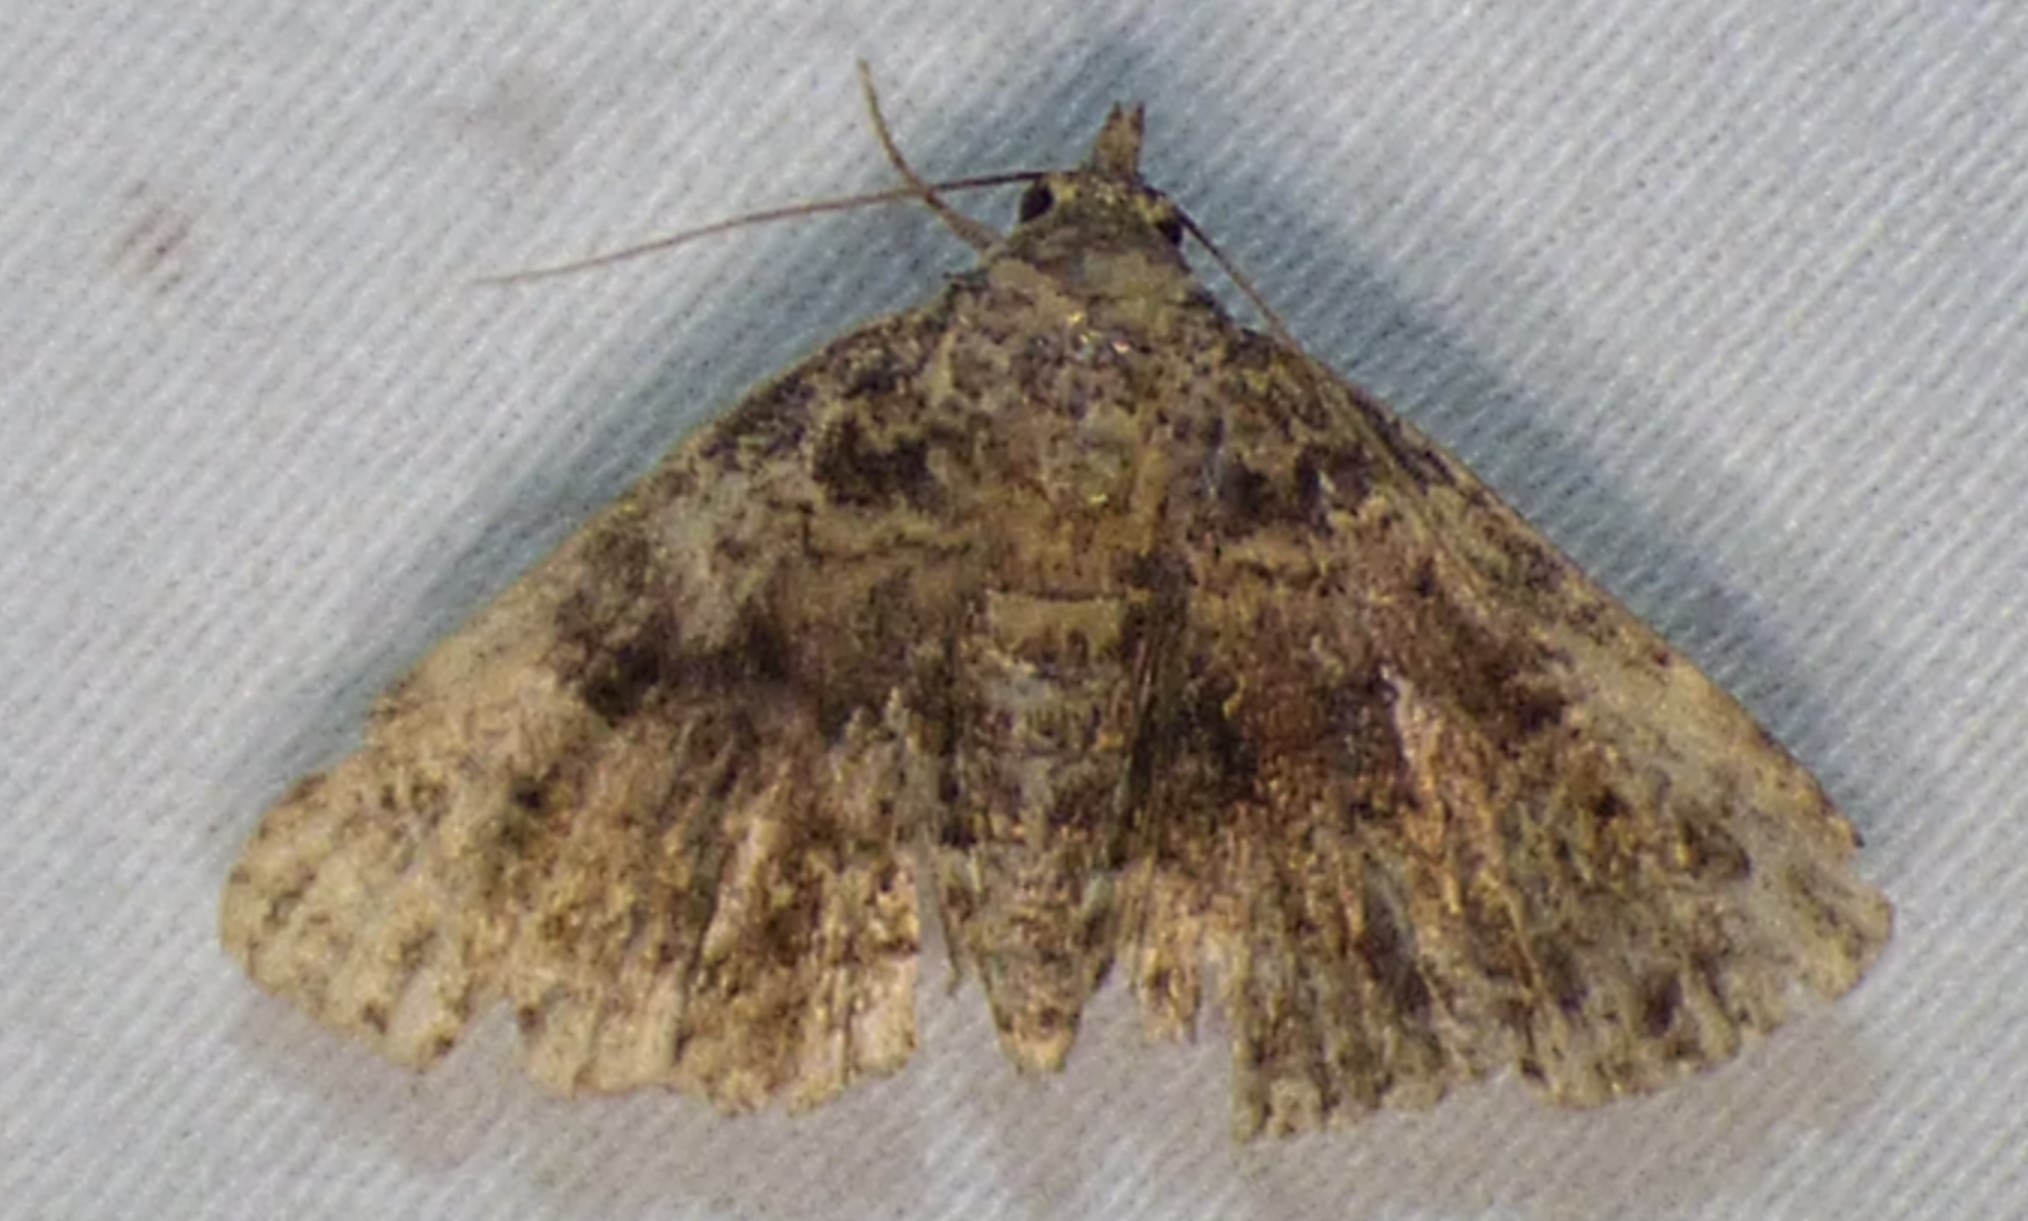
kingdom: Animalia
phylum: Arthropoda
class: Insecta
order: Lepidoptera
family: Erebidae
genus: Metalectra
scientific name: Metalectra discalis
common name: Common fungus moth
